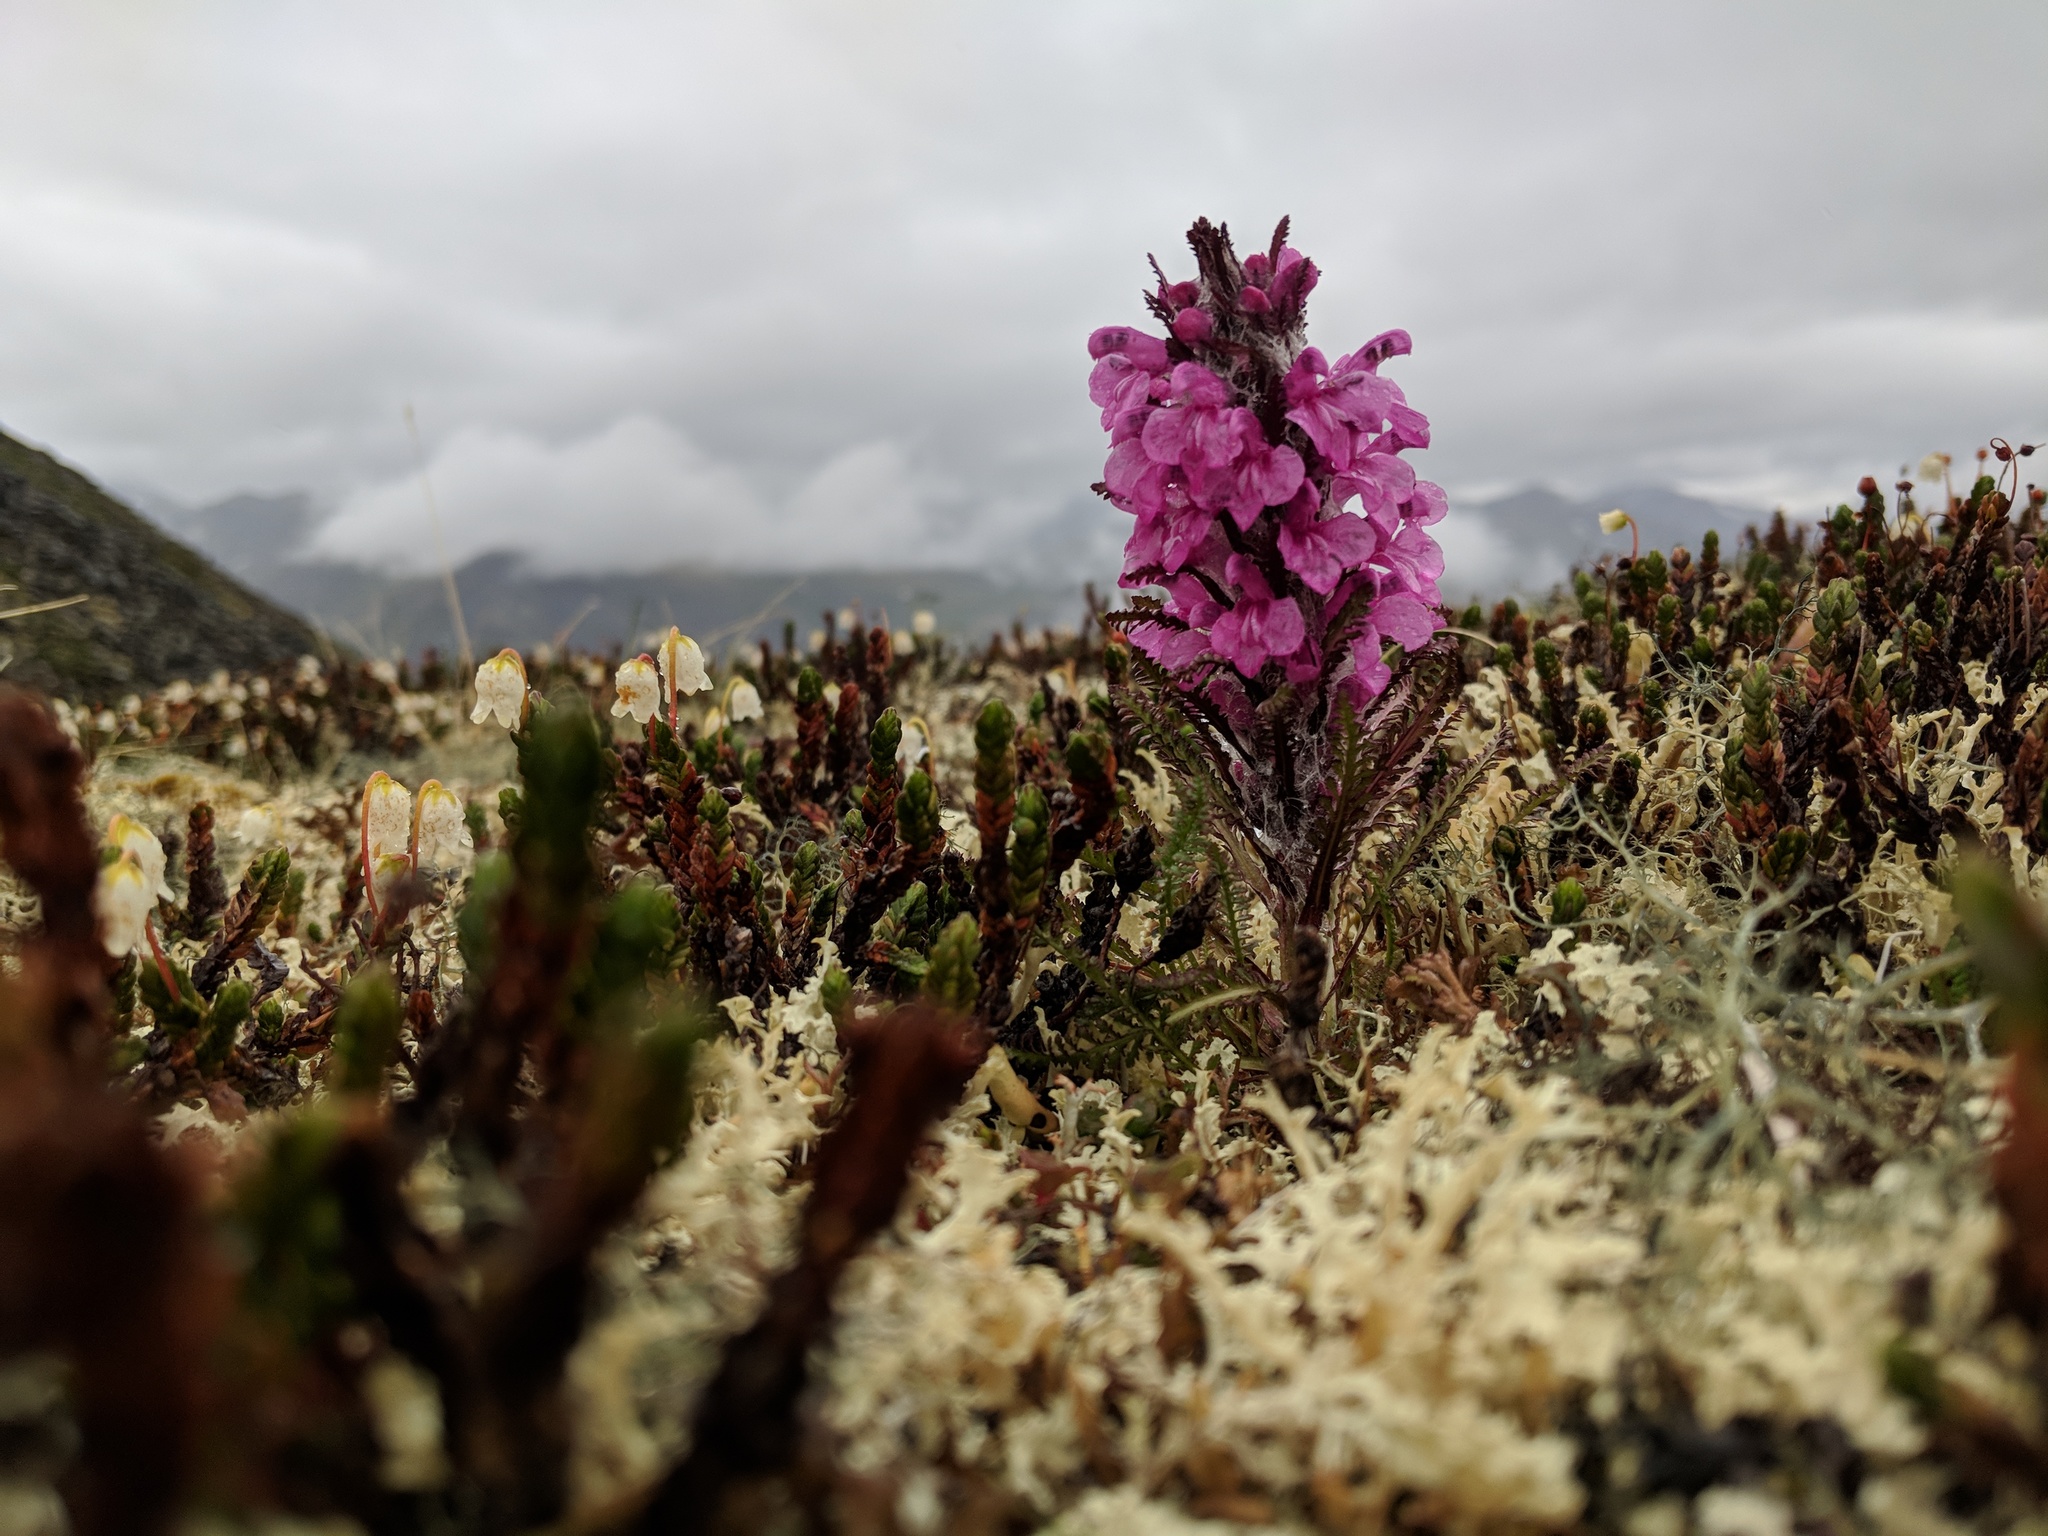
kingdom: Plantae
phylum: Tracheophyta
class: Magnoliopsida
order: Lamiales
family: Orobanchaceae
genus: Pedicularis
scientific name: Pedicularis lanata
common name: Woolly lousewort
